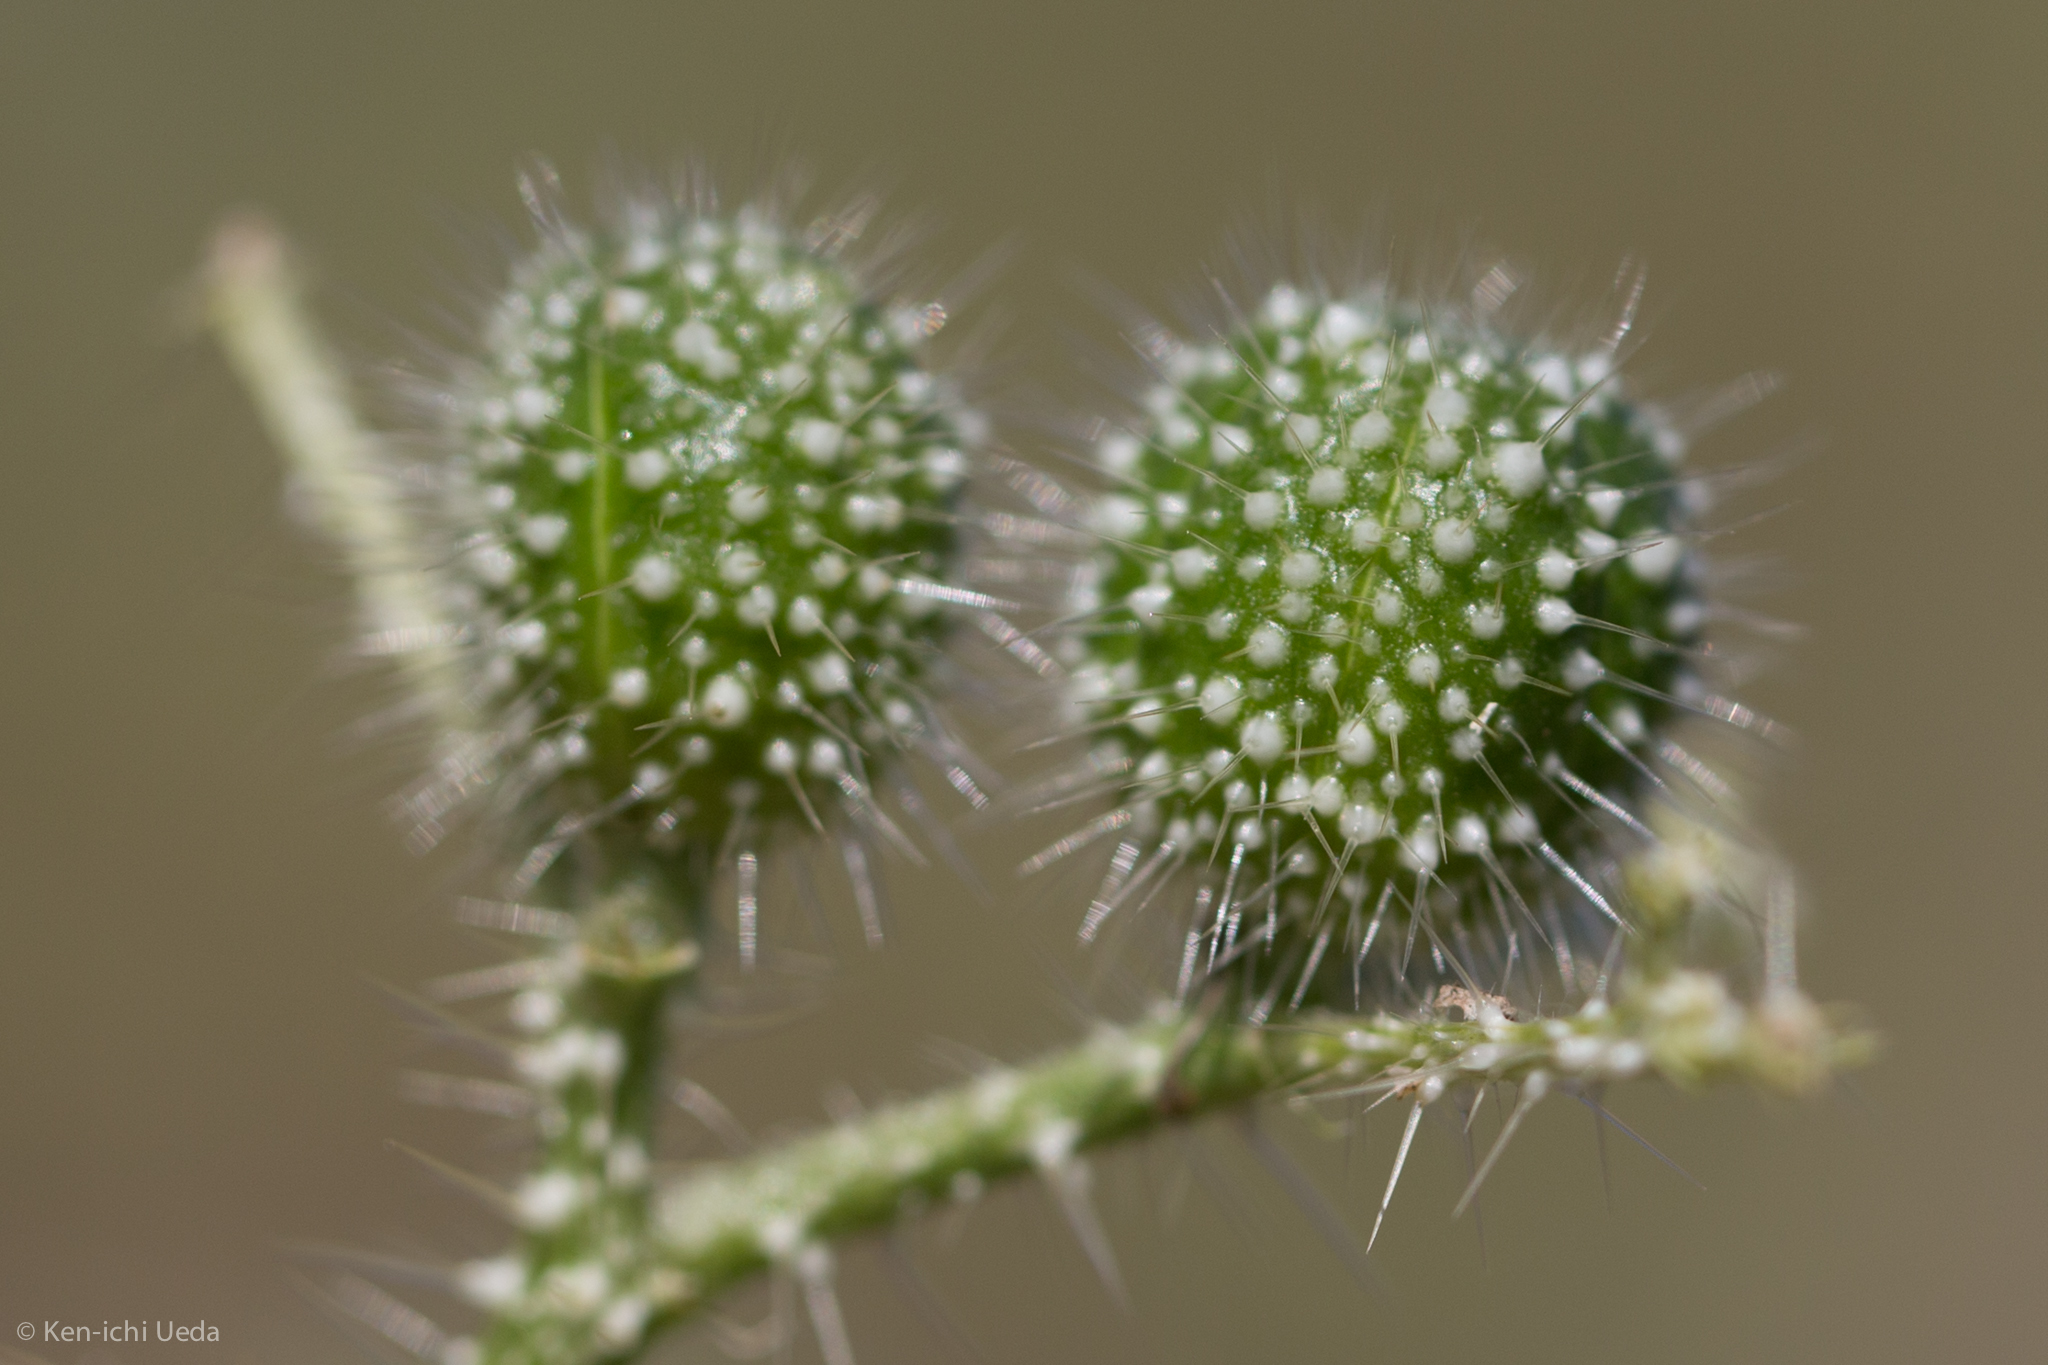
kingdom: Plantae
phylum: Tracheophyta
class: Magnoliopsida
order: Malpighiales
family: Euphorbiaceae
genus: Cnidoscolus
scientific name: Cnidoscolus angustidens
